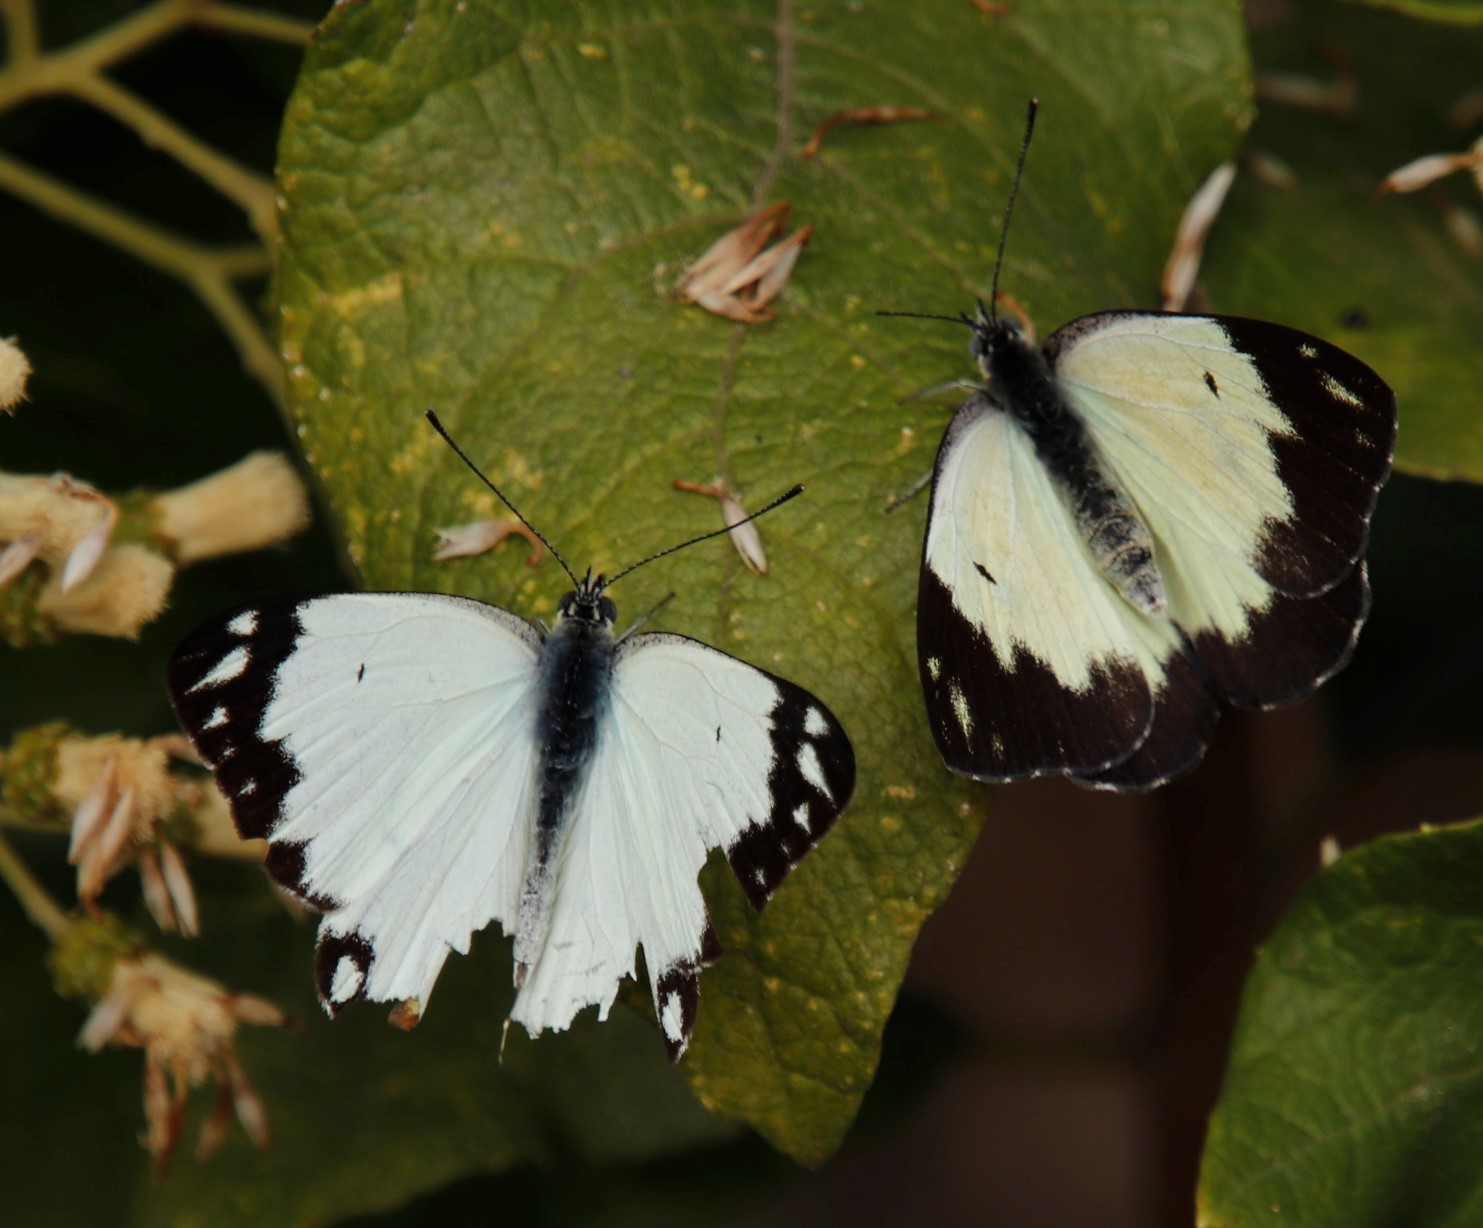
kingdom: Animalia
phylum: Arthropoda
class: Insecta
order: Lepidoptera
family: Pieridae
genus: Belenois
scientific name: Belenois creona
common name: African caper white
